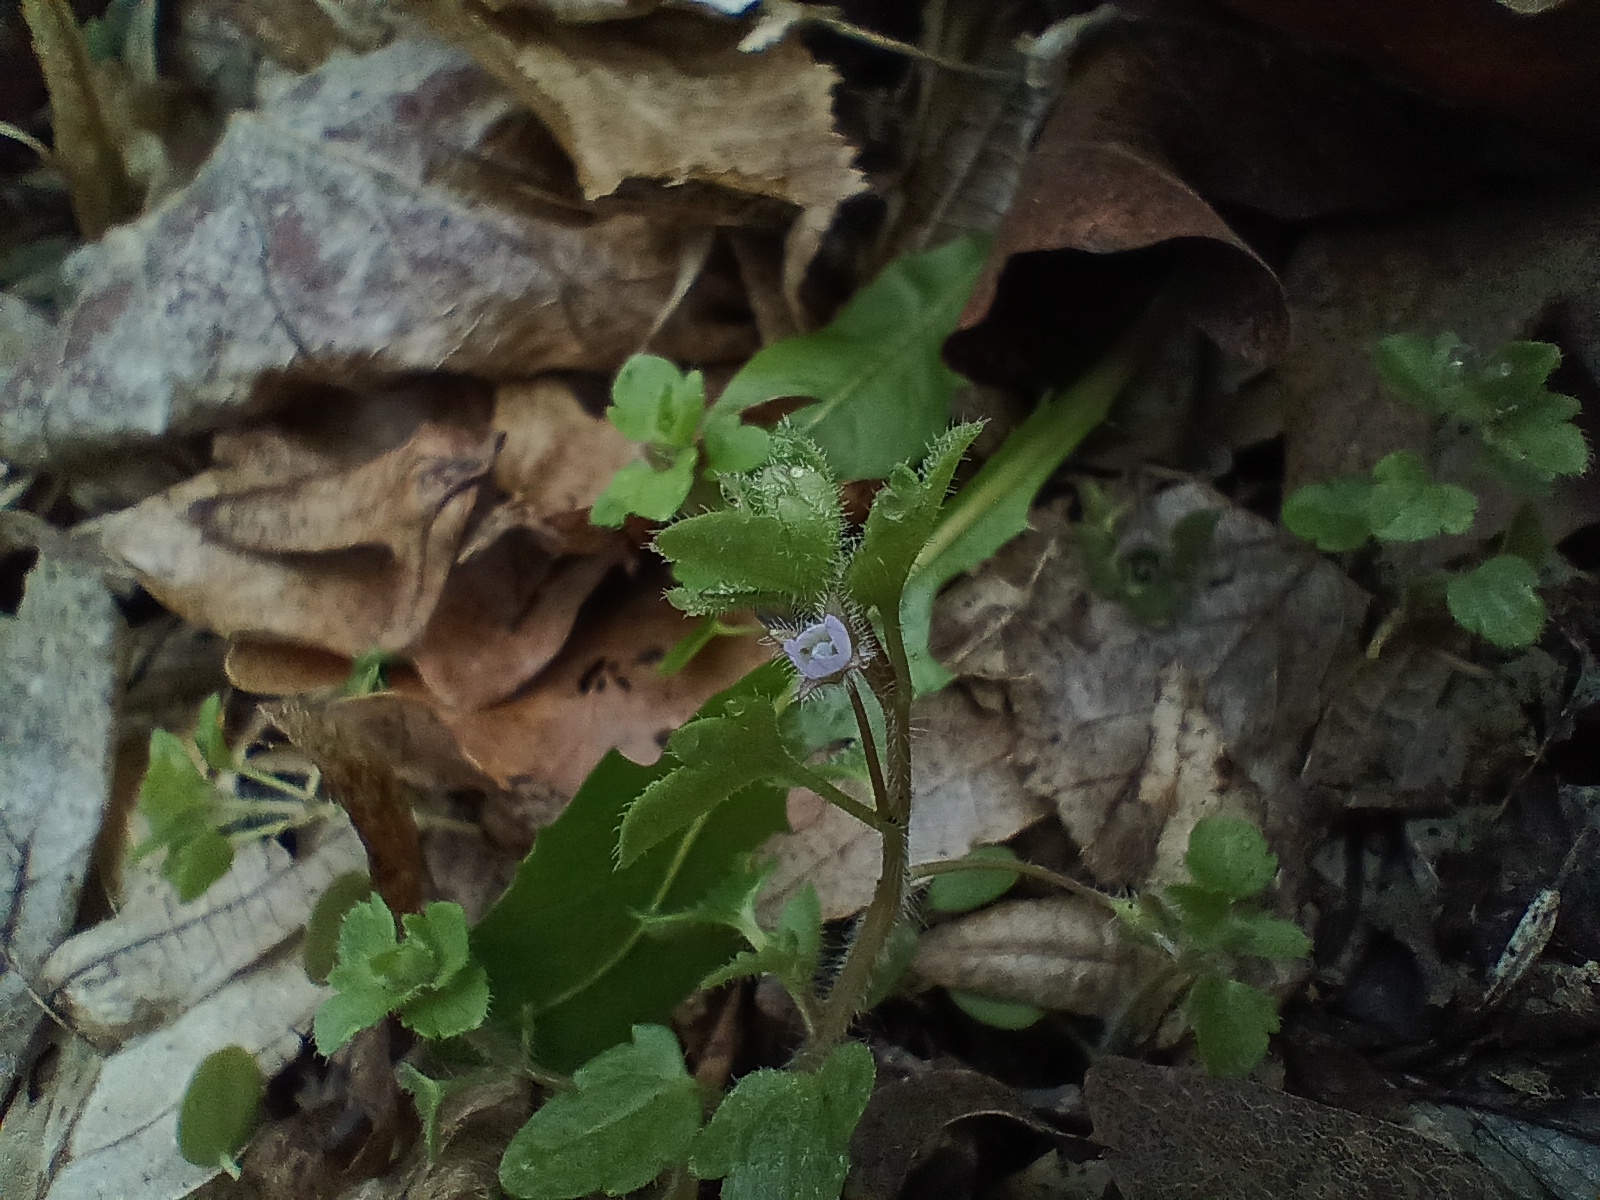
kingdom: Plantae
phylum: Tracheophyta
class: Magnoliopsida
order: Lamiales
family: Plantaginaceae
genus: Veronica
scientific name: Veronica sublobata
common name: False ivy-leaved speedwell
